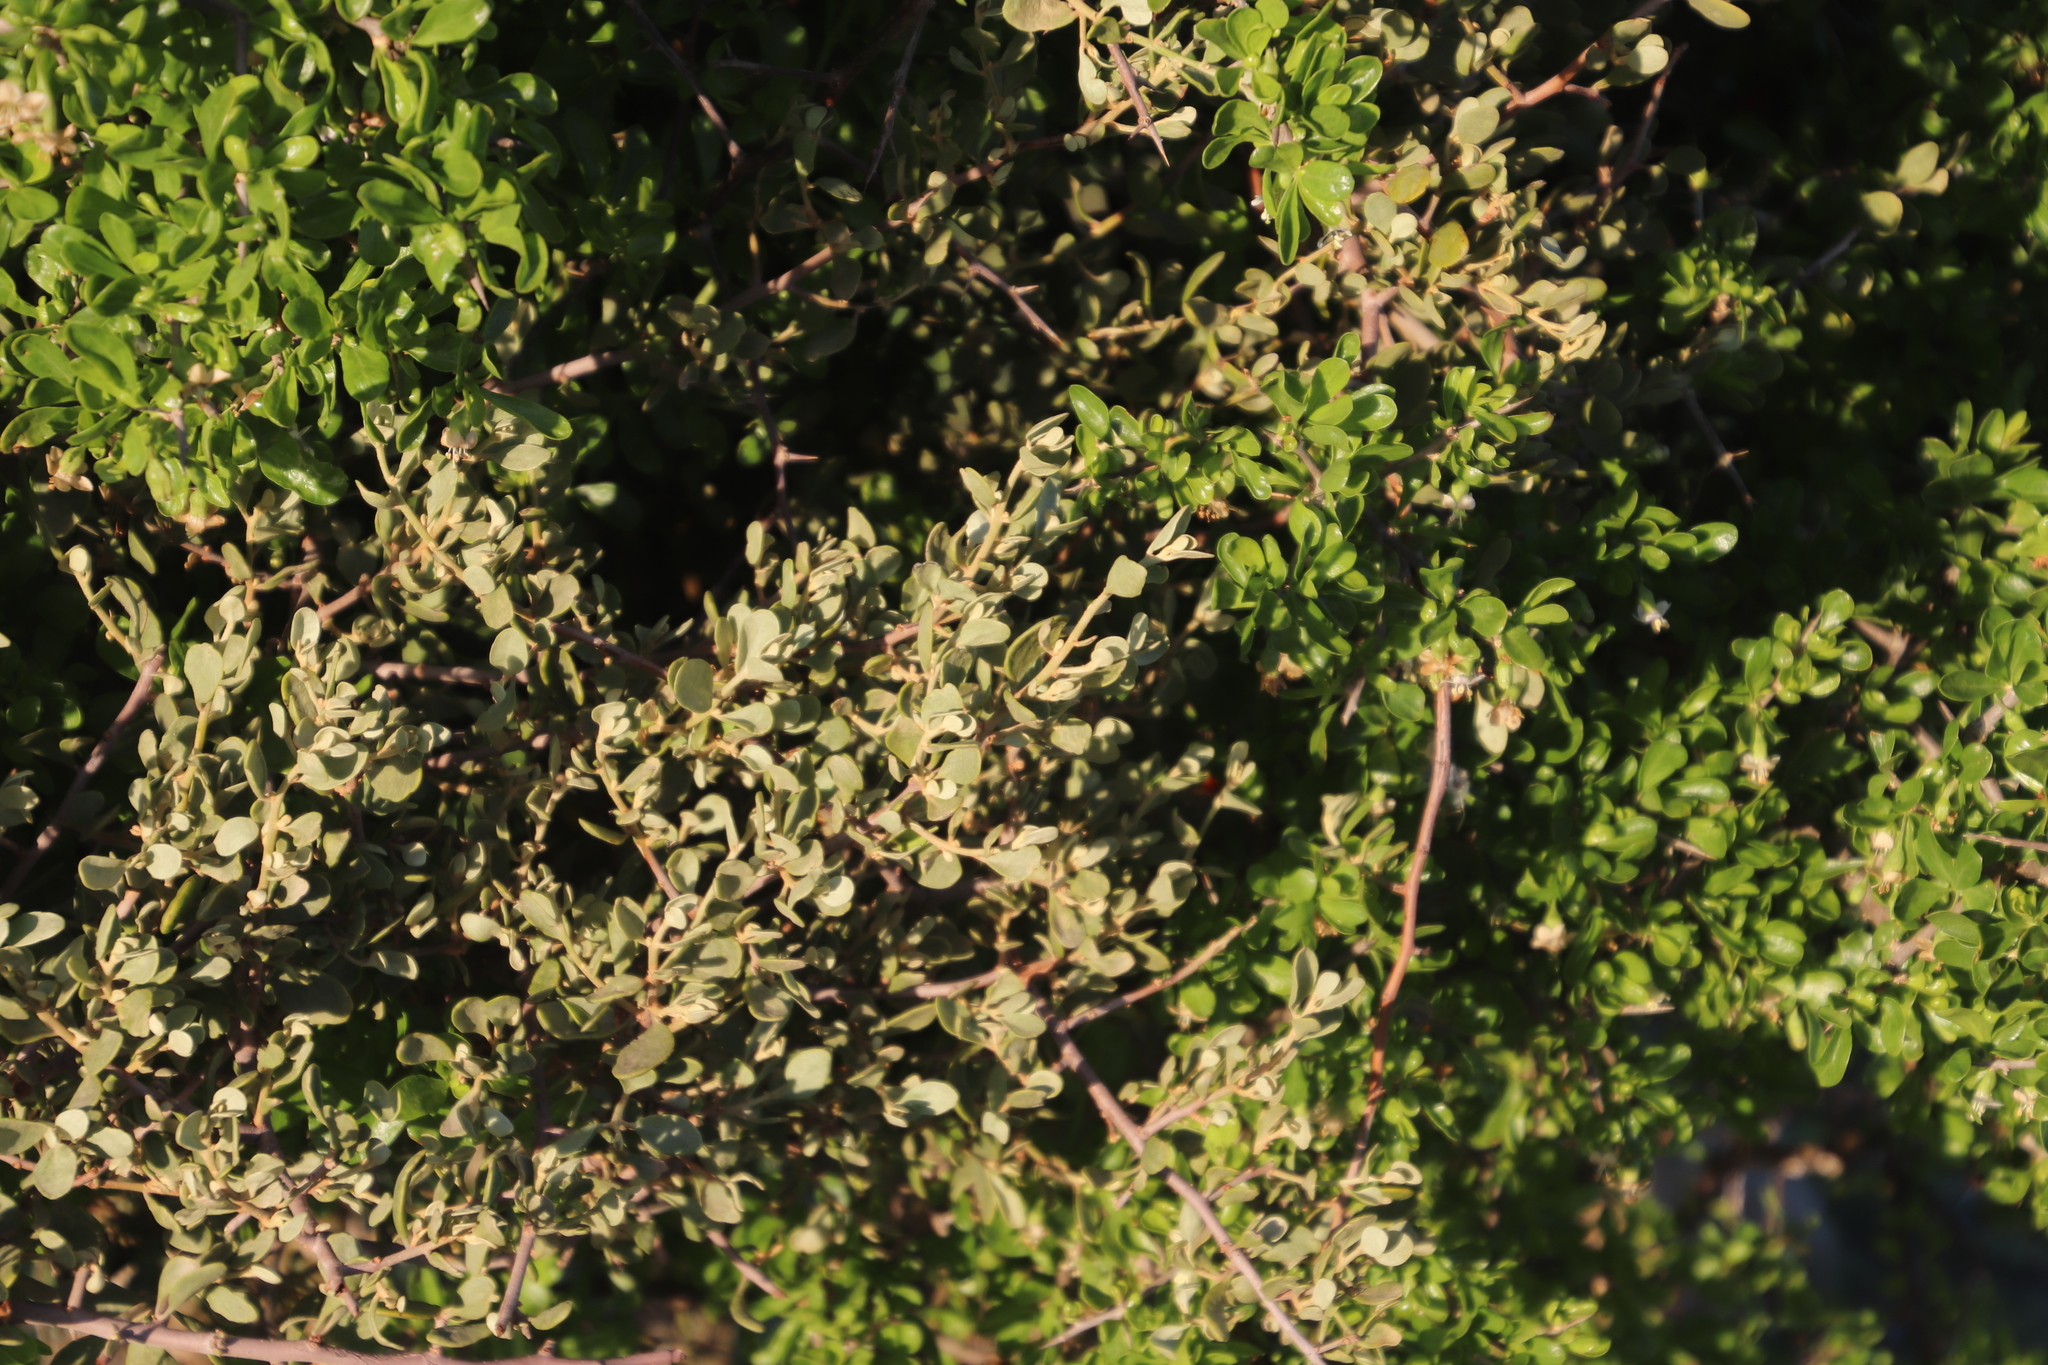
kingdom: Plantae
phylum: Tracheophyta
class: Magnoliopsida
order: Santalales
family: Loranthaceae
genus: Septulina
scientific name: Septulina glauca
